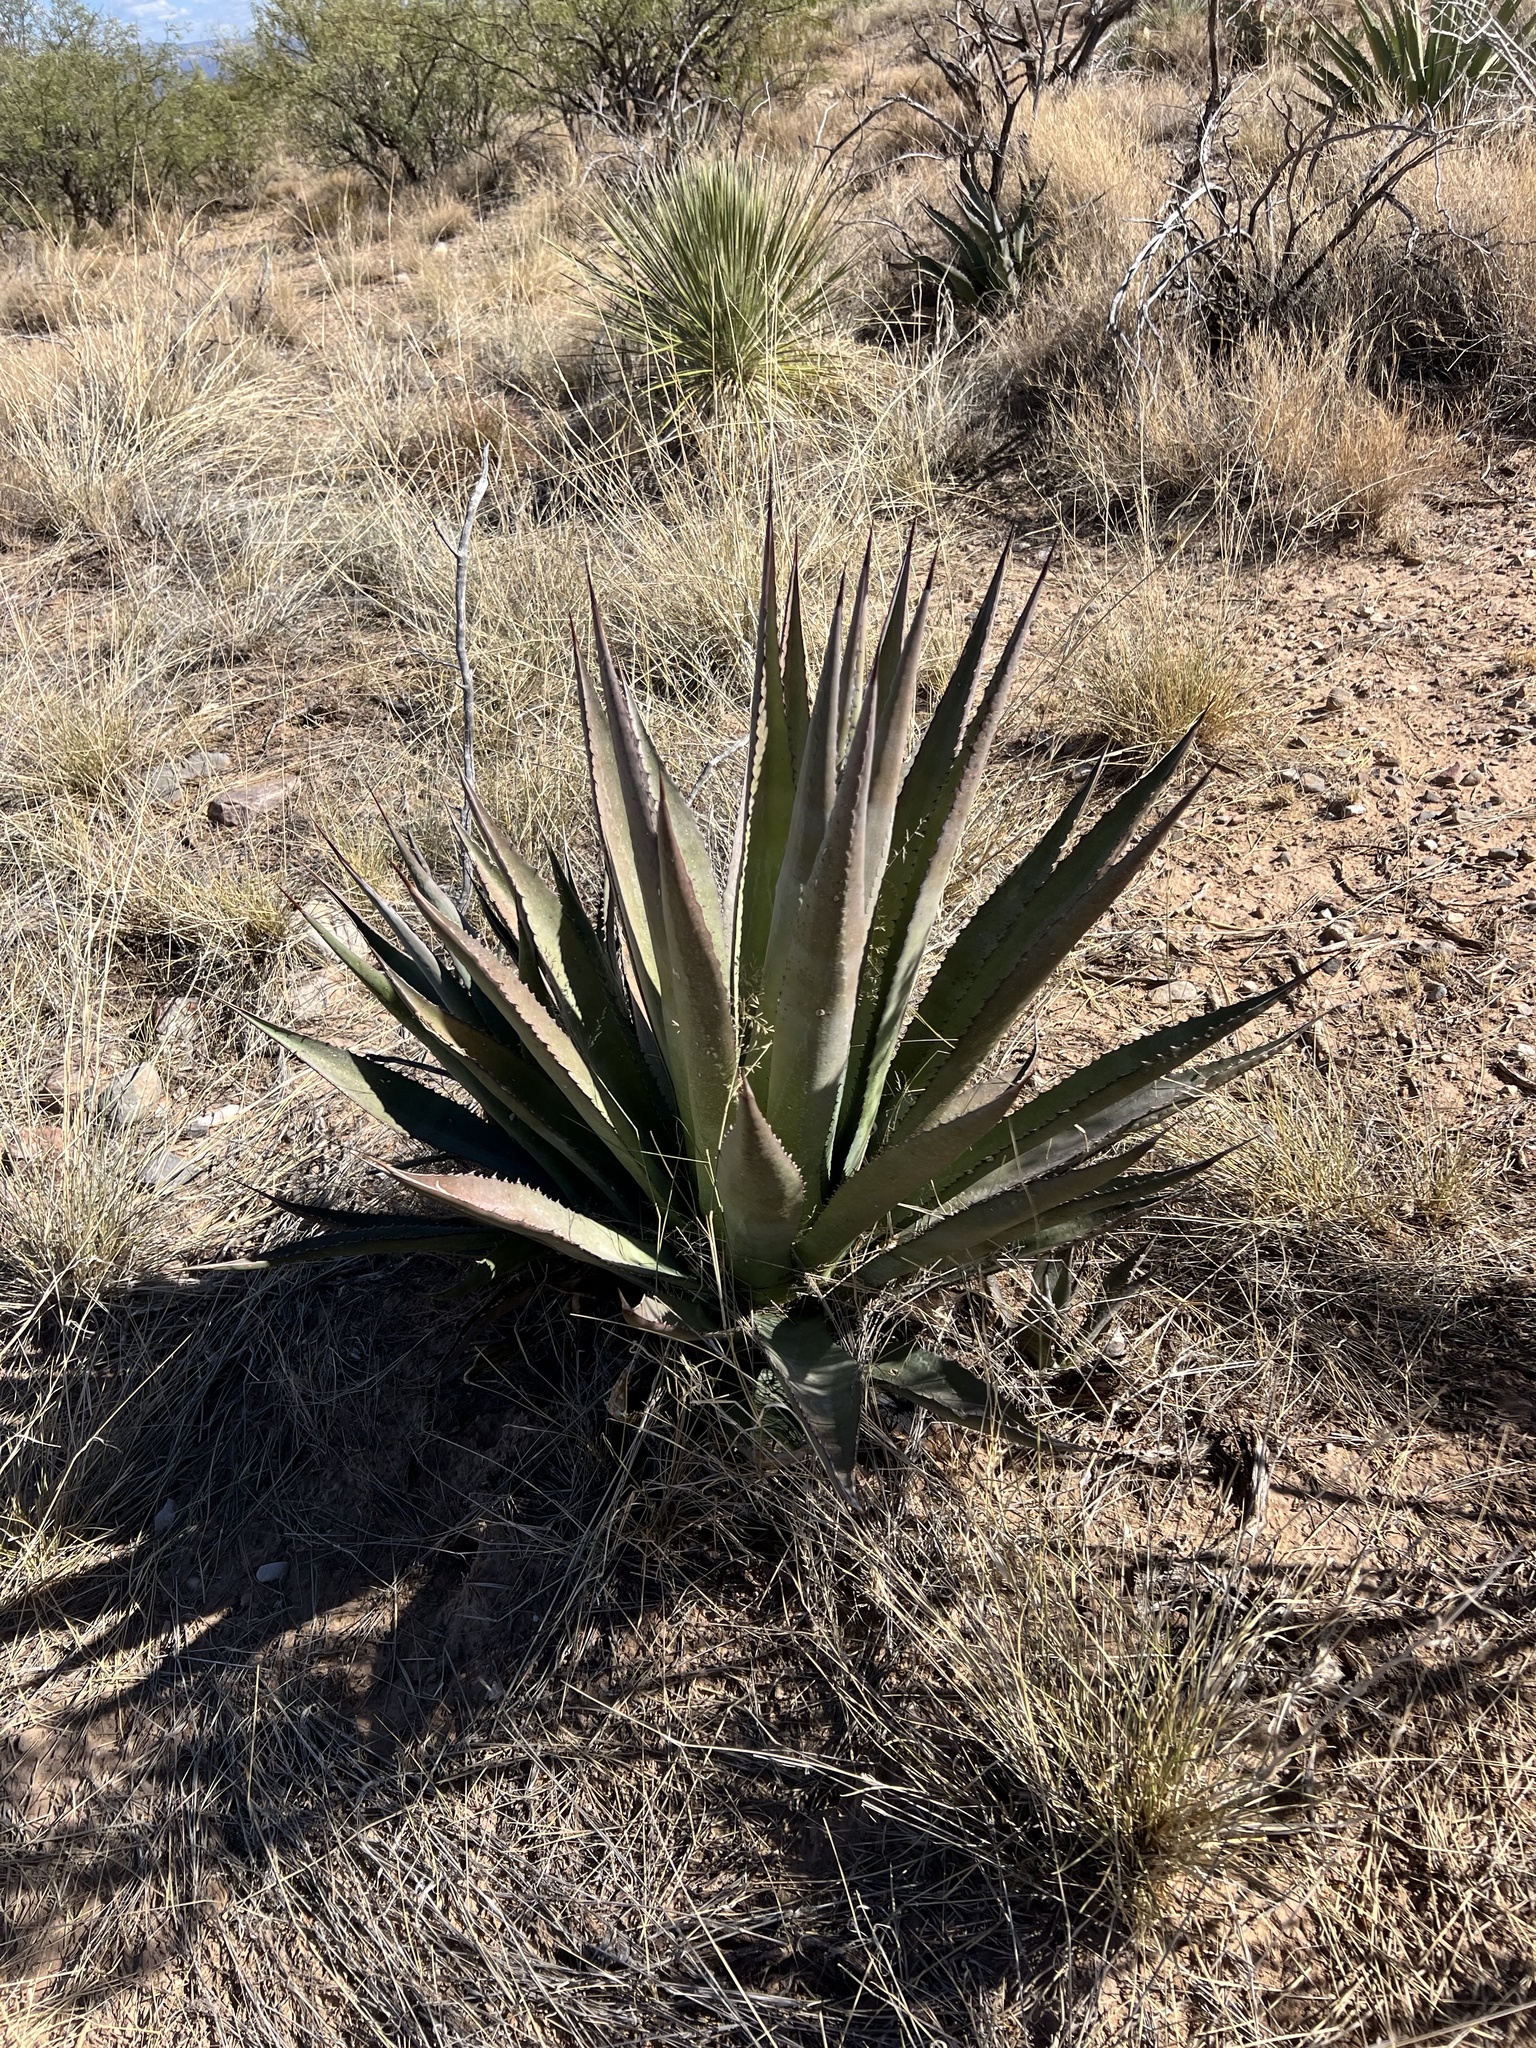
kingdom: Plantae
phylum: Tracheophyta
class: Liliopsida
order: Asparagales
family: Asparagaceae
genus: Agave
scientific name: Agave palmeri
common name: Palmer agave
